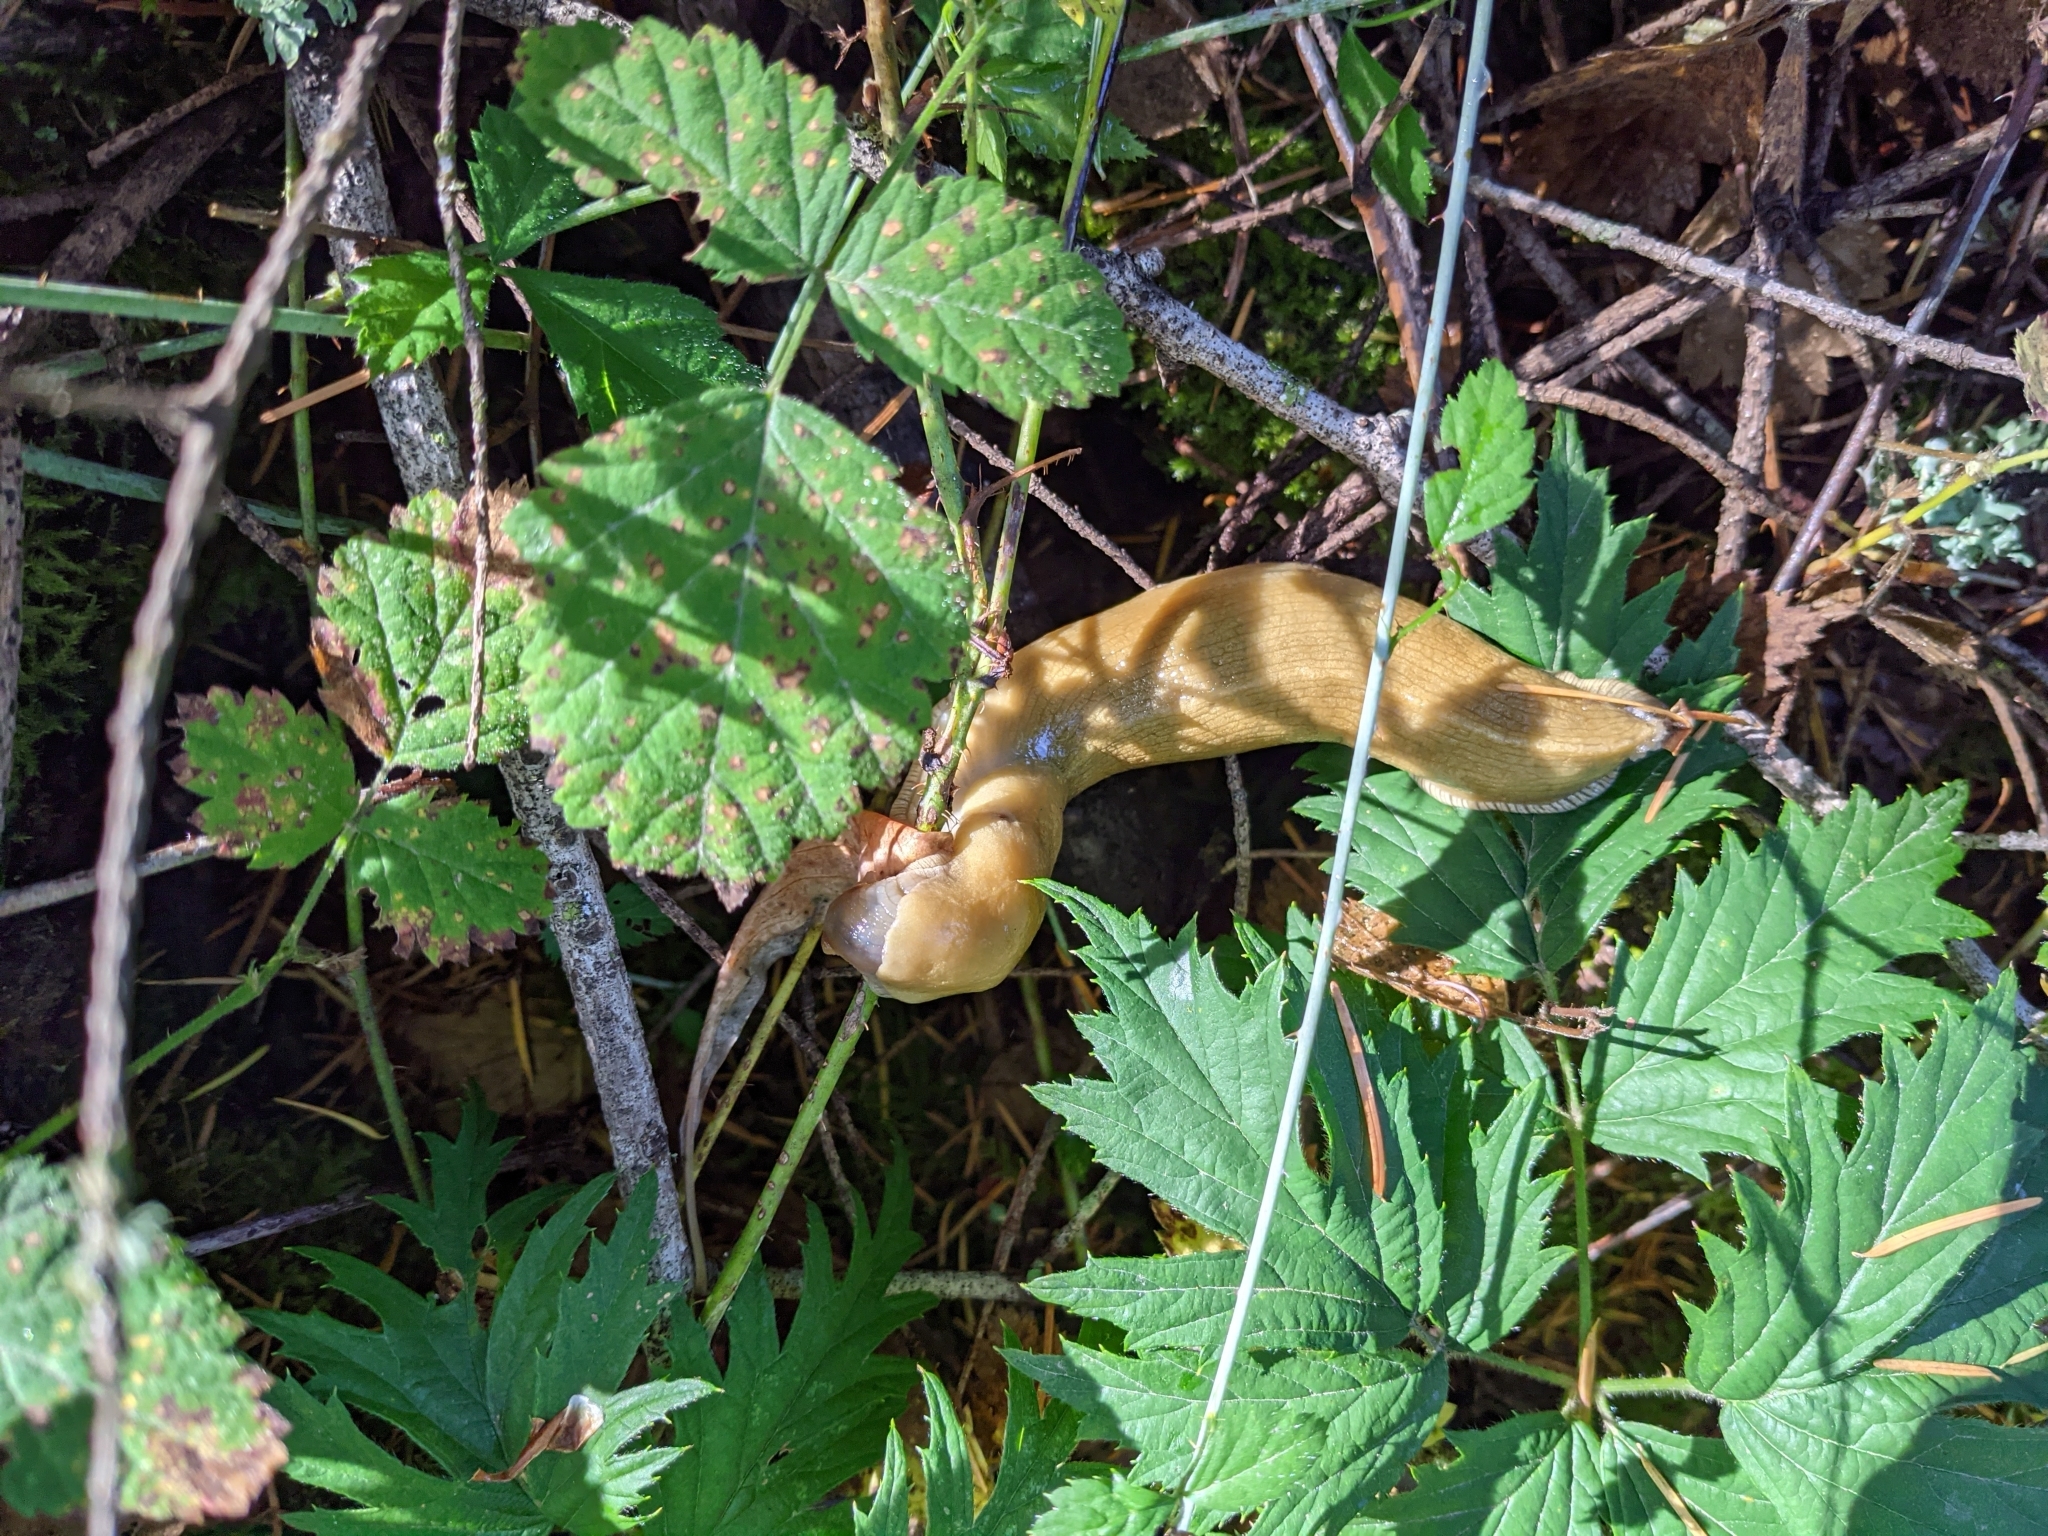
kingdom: Animalia
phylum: Mollusca
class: Gastropoda
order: Stylommatophora
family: Ariolimacidae
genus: Ariolimax
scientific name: Ariolimax columbianus
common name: Pacific banana slug
